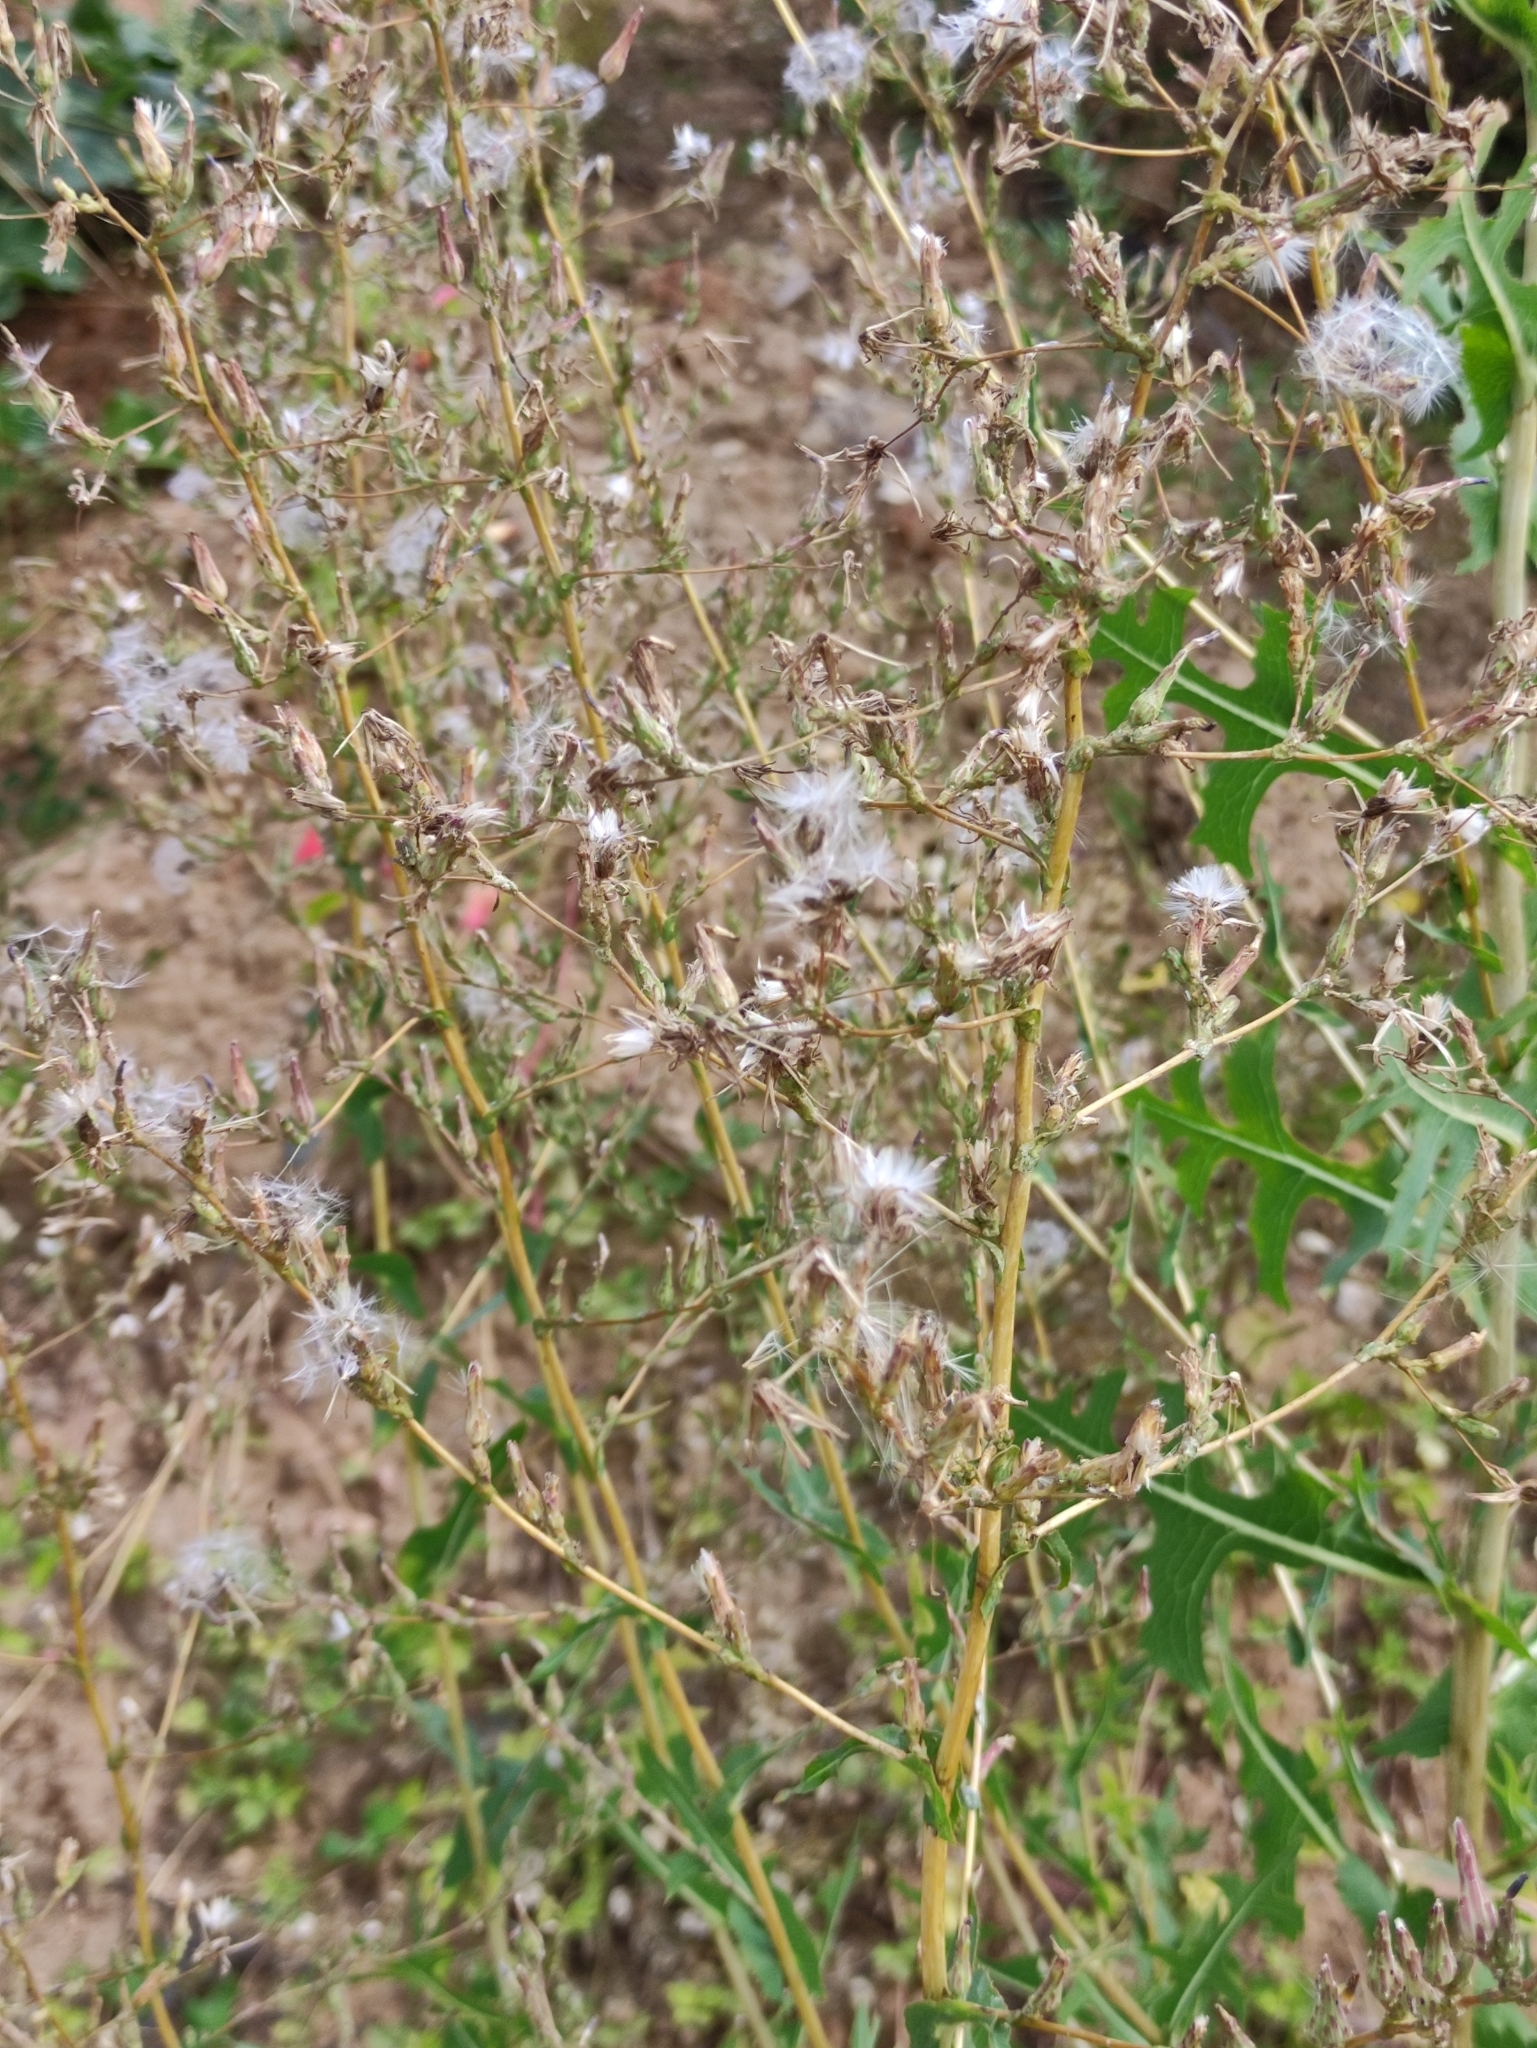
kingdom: Plantae
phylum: Tracheophyta
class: Magnoliopsida
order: Asterales
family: Asteraceae
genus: Lactuca
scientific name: Lactuca serriola
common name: Prickly lettuce
